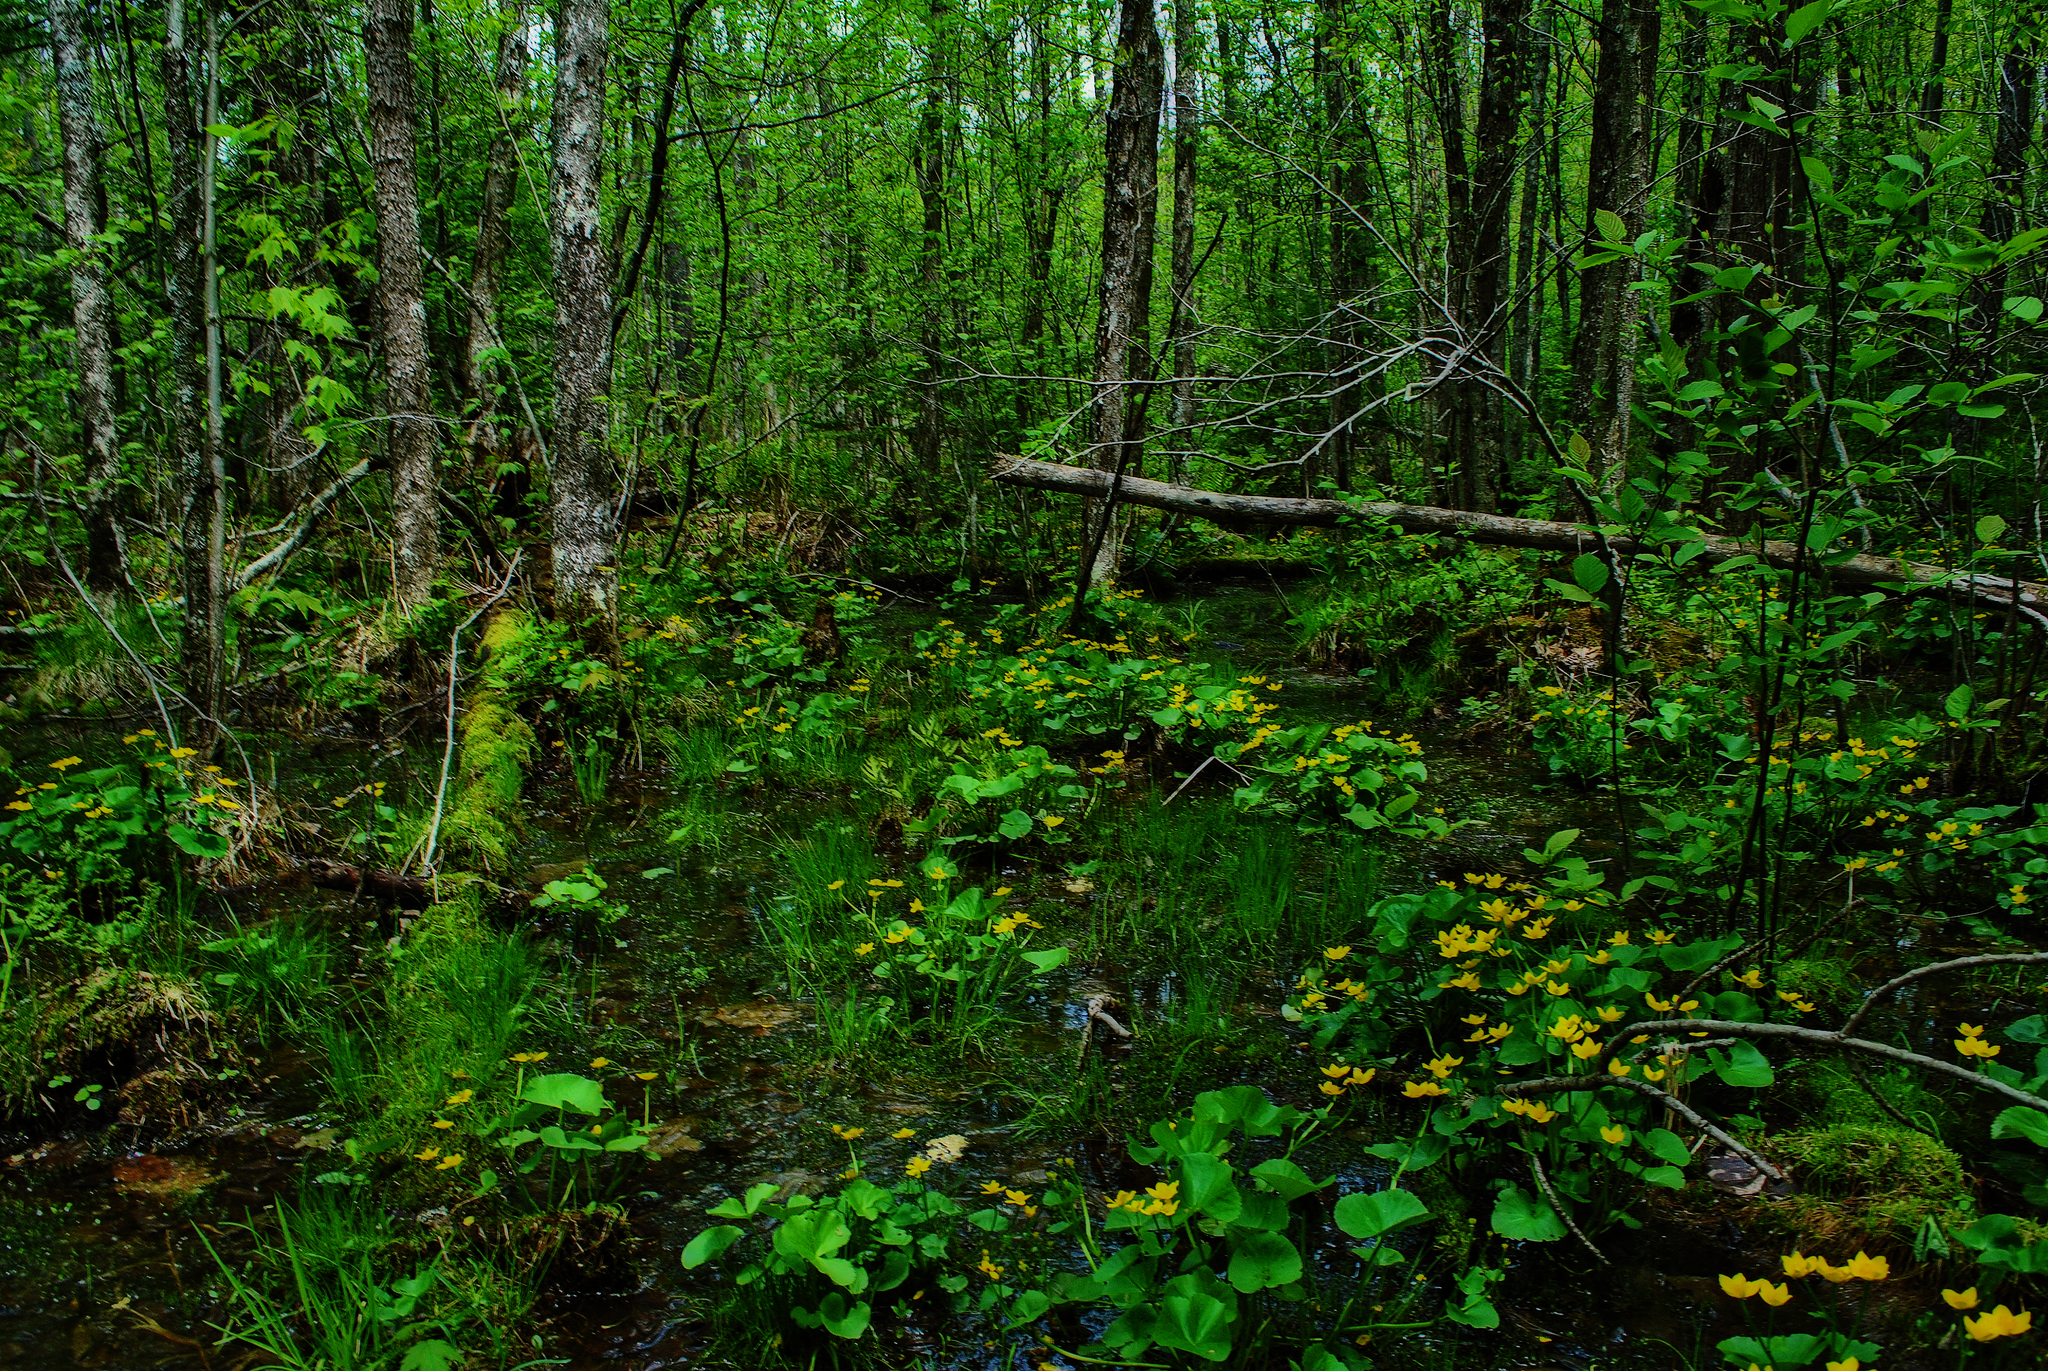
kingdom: Plantae
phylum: Tracheophyta
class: Magnoliopsida
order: Ranunculales
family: Ranunculaceae
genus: Caltha
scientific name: Caltha palustris
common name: Marsh marigold
